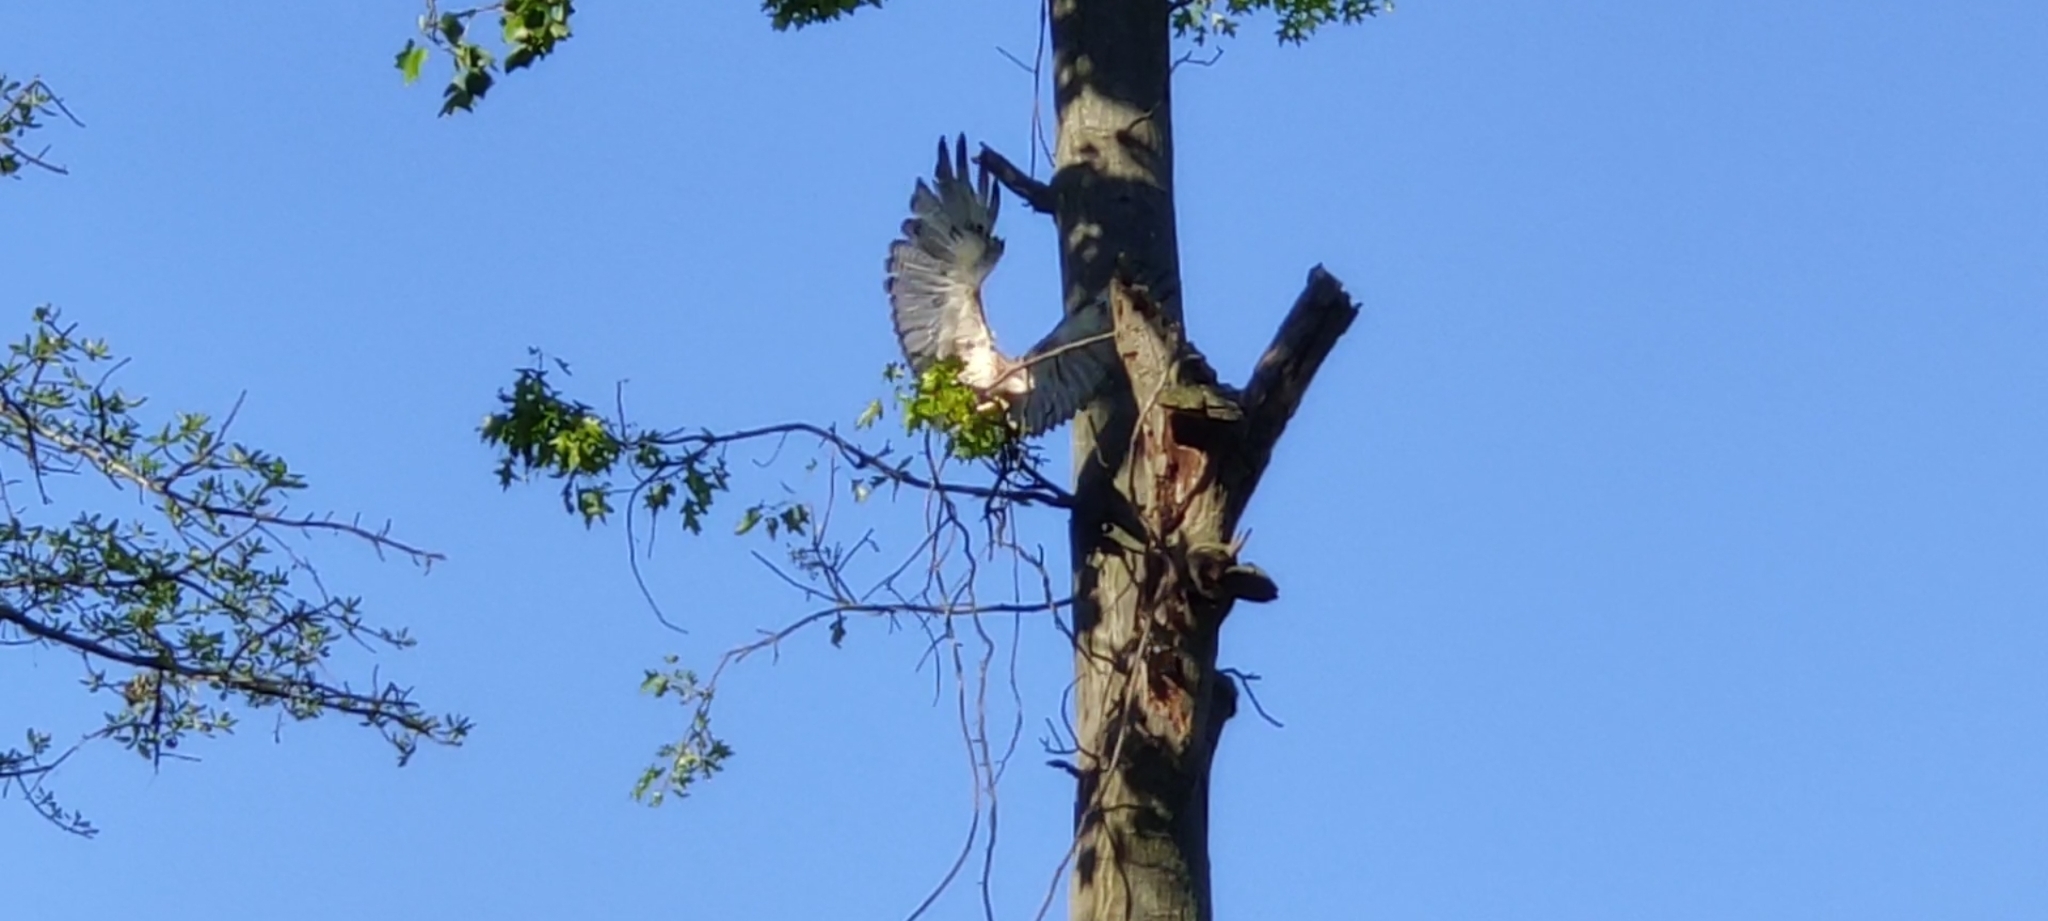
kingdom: Animalia
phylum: Chordata
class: Aves
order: Accipitriformes
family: Accipitridae
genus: Buteo
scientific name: Buteo jamaicensis
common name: Red-tailed hawk
